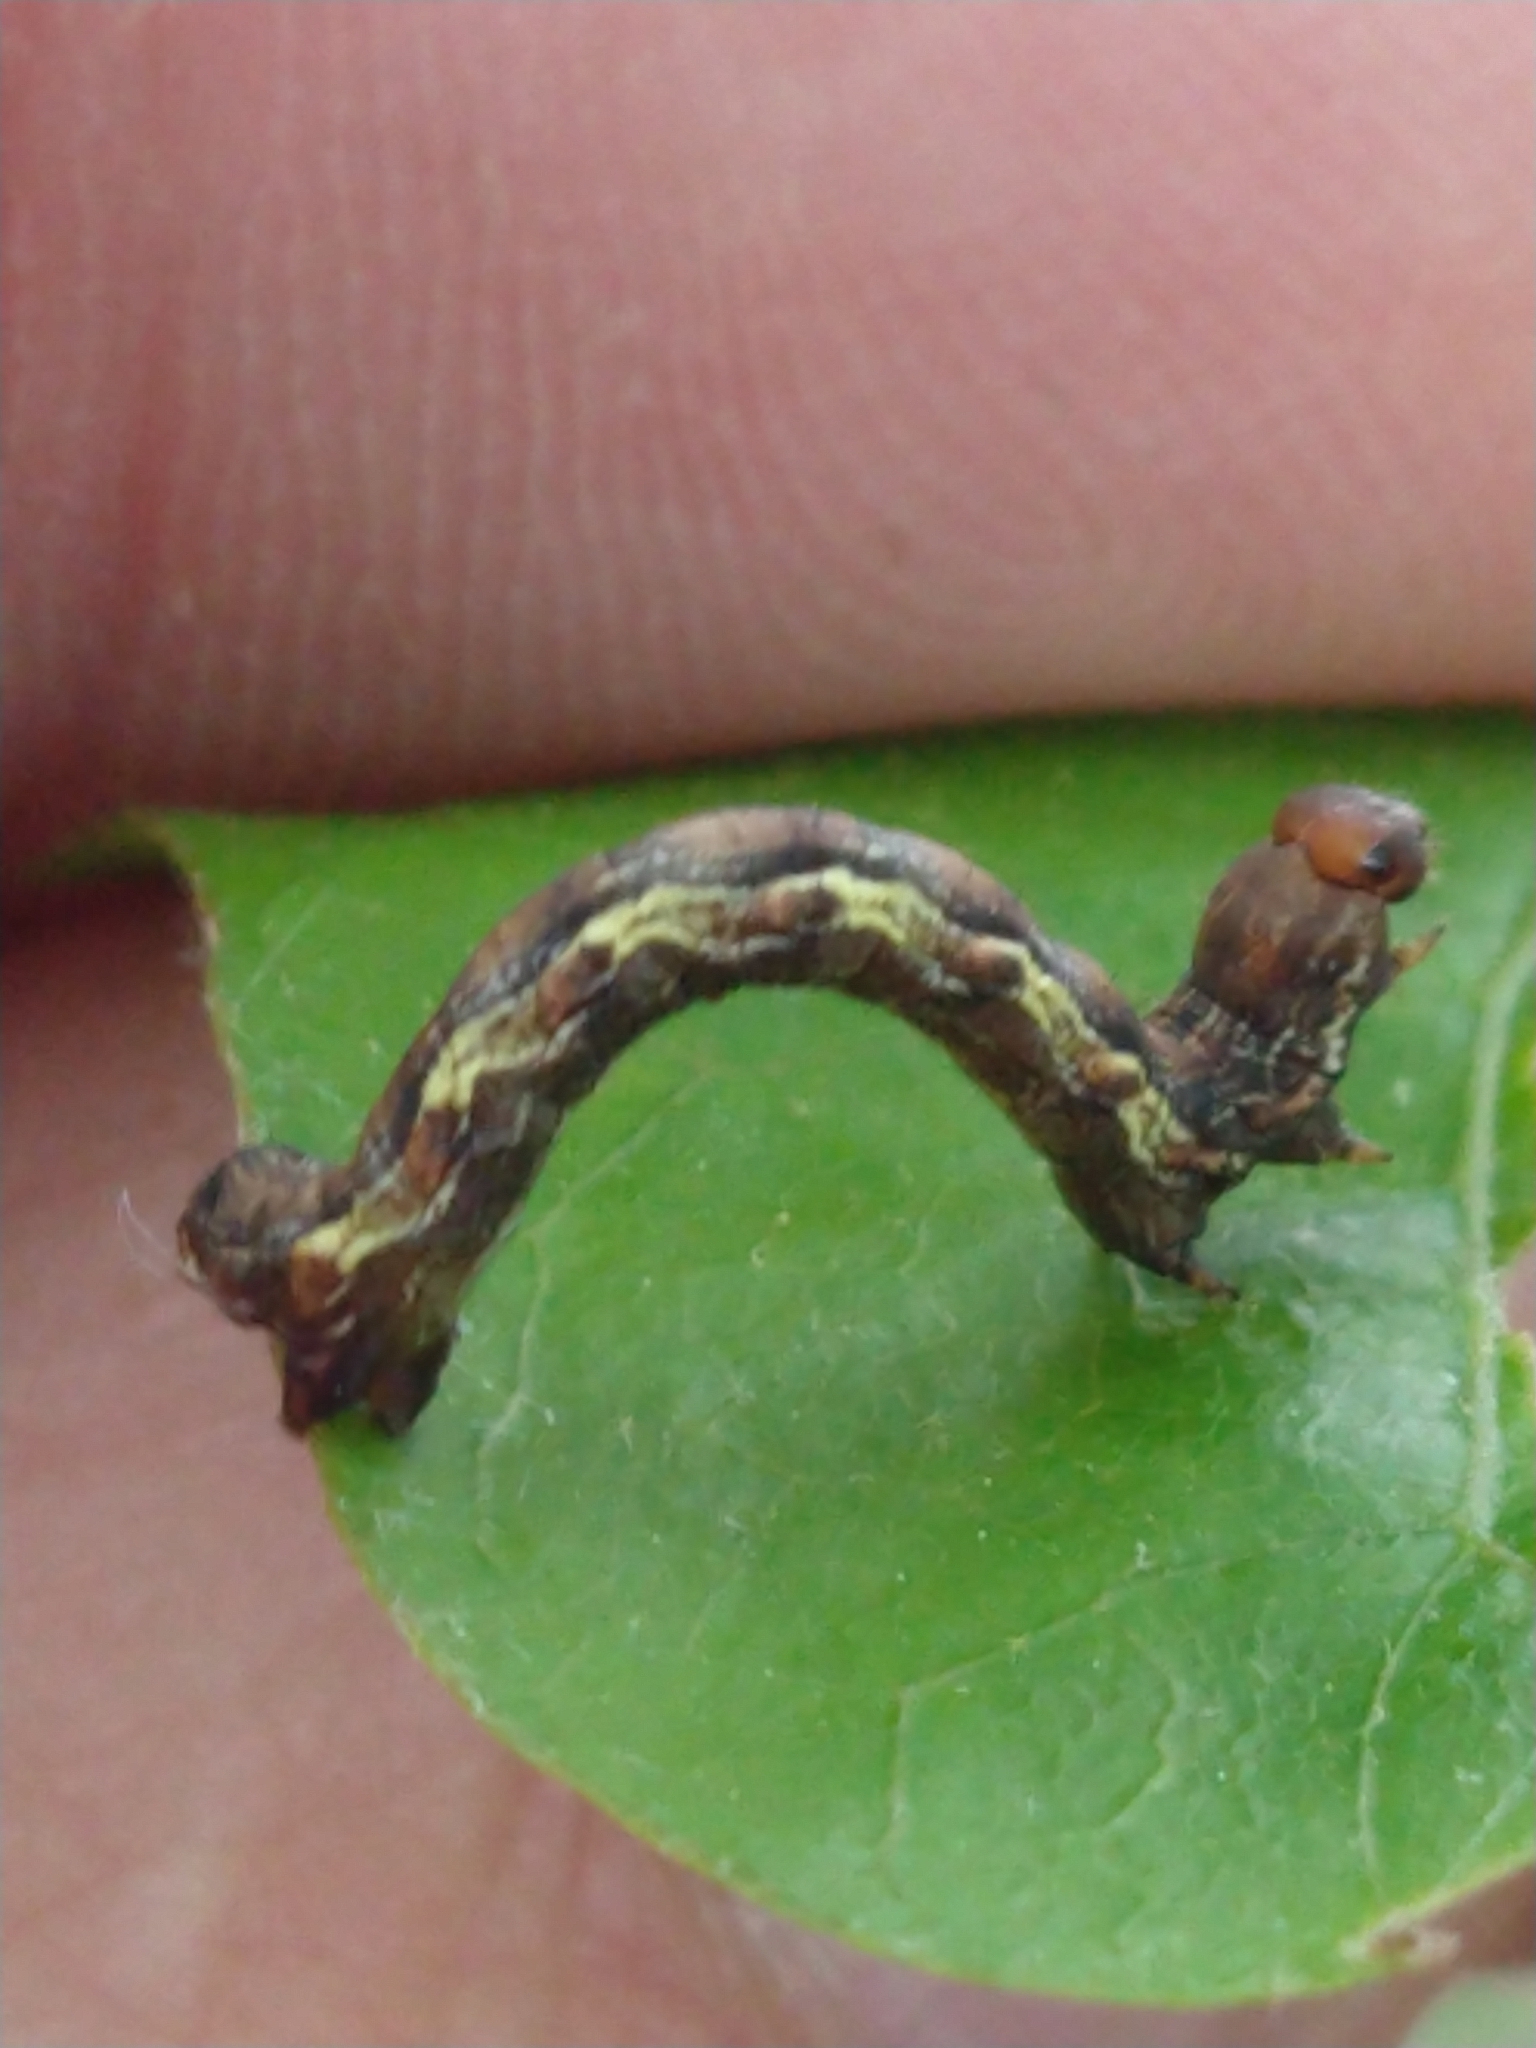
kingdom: Animalia
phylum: Arthropoda
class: Insecta
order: Lepidoptera
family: Geometridae
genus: Erannis
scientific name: Erannis defoliaria
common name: Mottled umber
